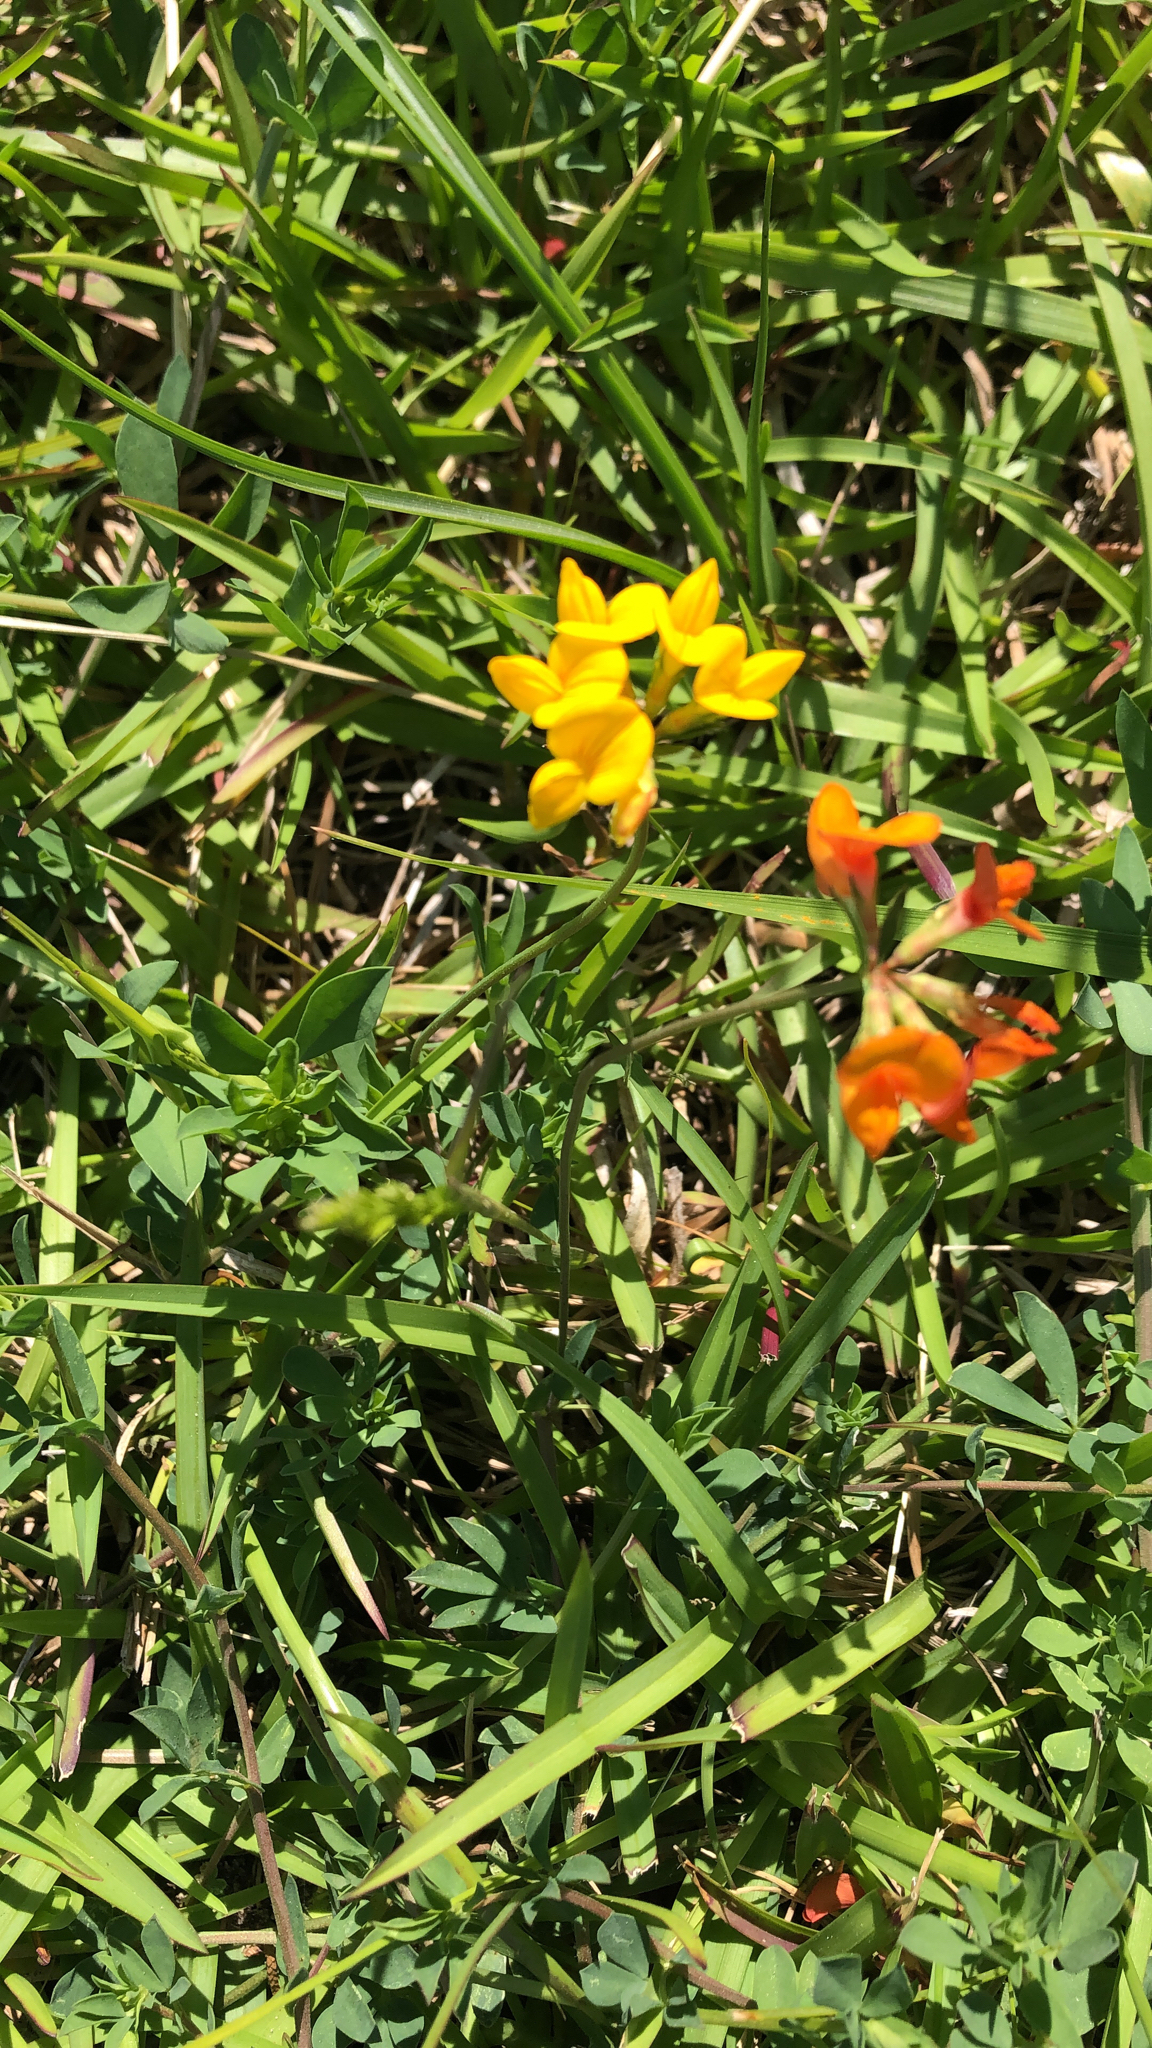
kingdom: Plantae
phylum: Tracheophyta
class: Magnoliopsida
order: Fabales
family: Fabaceae
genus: Lotus
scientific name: Lotus corniculatus
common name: Common bird's-foot-trefoil
